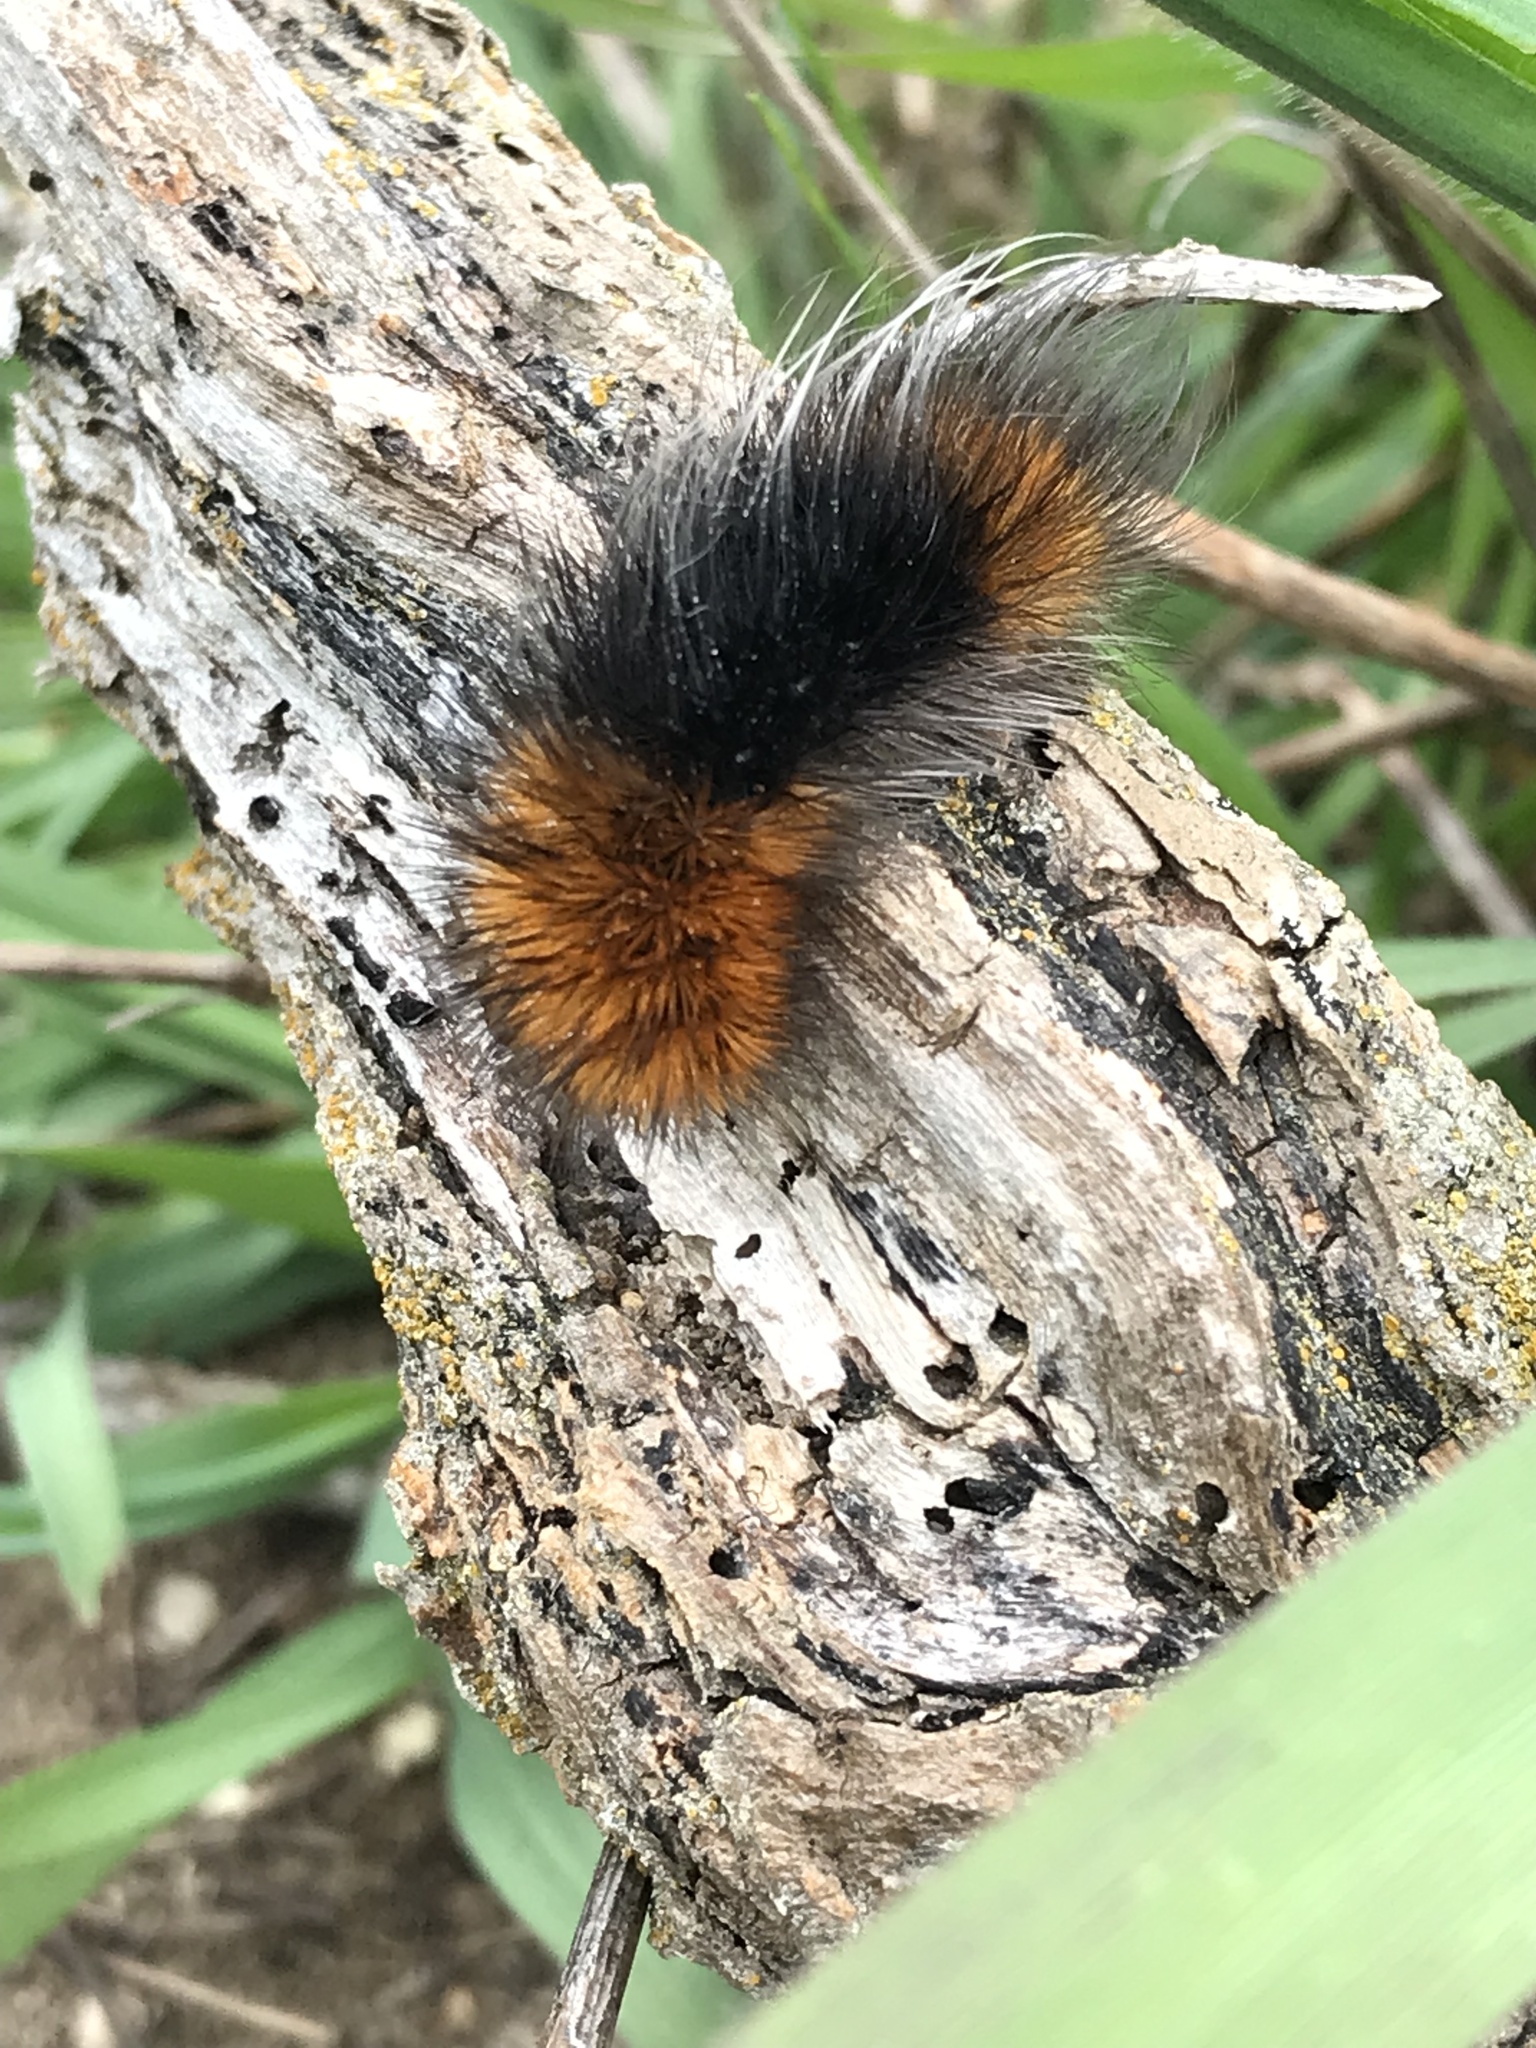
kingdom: Animalia
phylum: Arthropoda
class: Insecta
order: Lepidoptera
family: Erebidae
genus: Arctia
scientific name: Arctia tigrina
